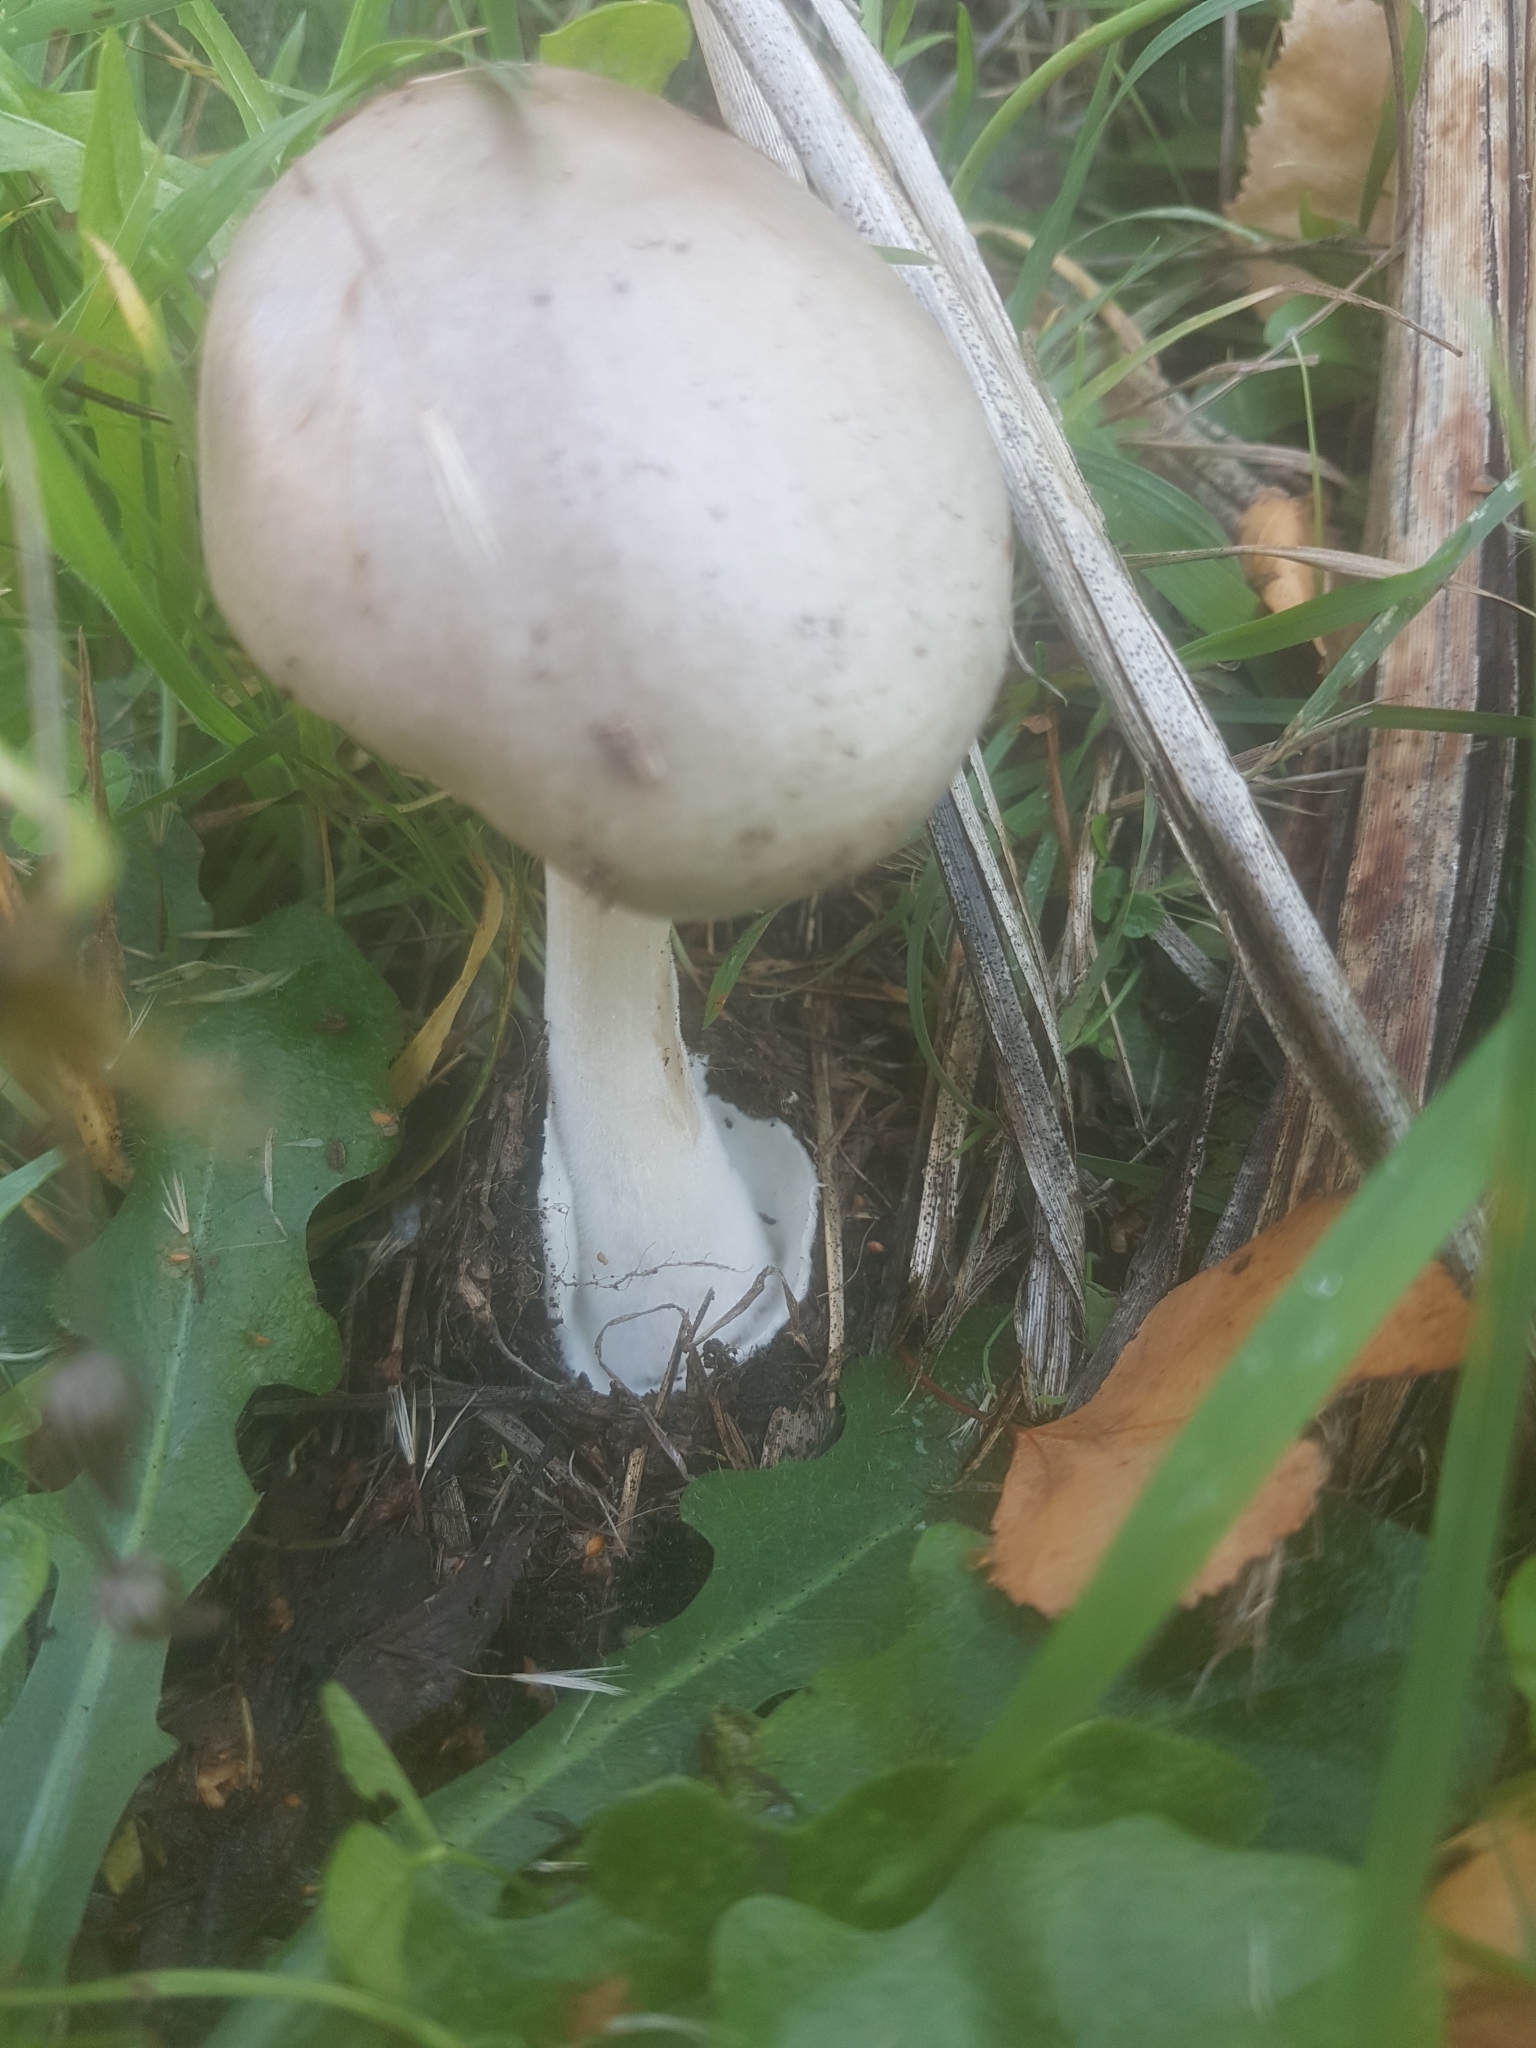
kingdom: Fungi
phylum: Basidiomycota
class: Agaricomycetes
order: Agaricales
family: Pluteaceae
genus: Volvopluteus
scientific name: Volvopluteus gloiocephalus
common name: Stubble rosegill
